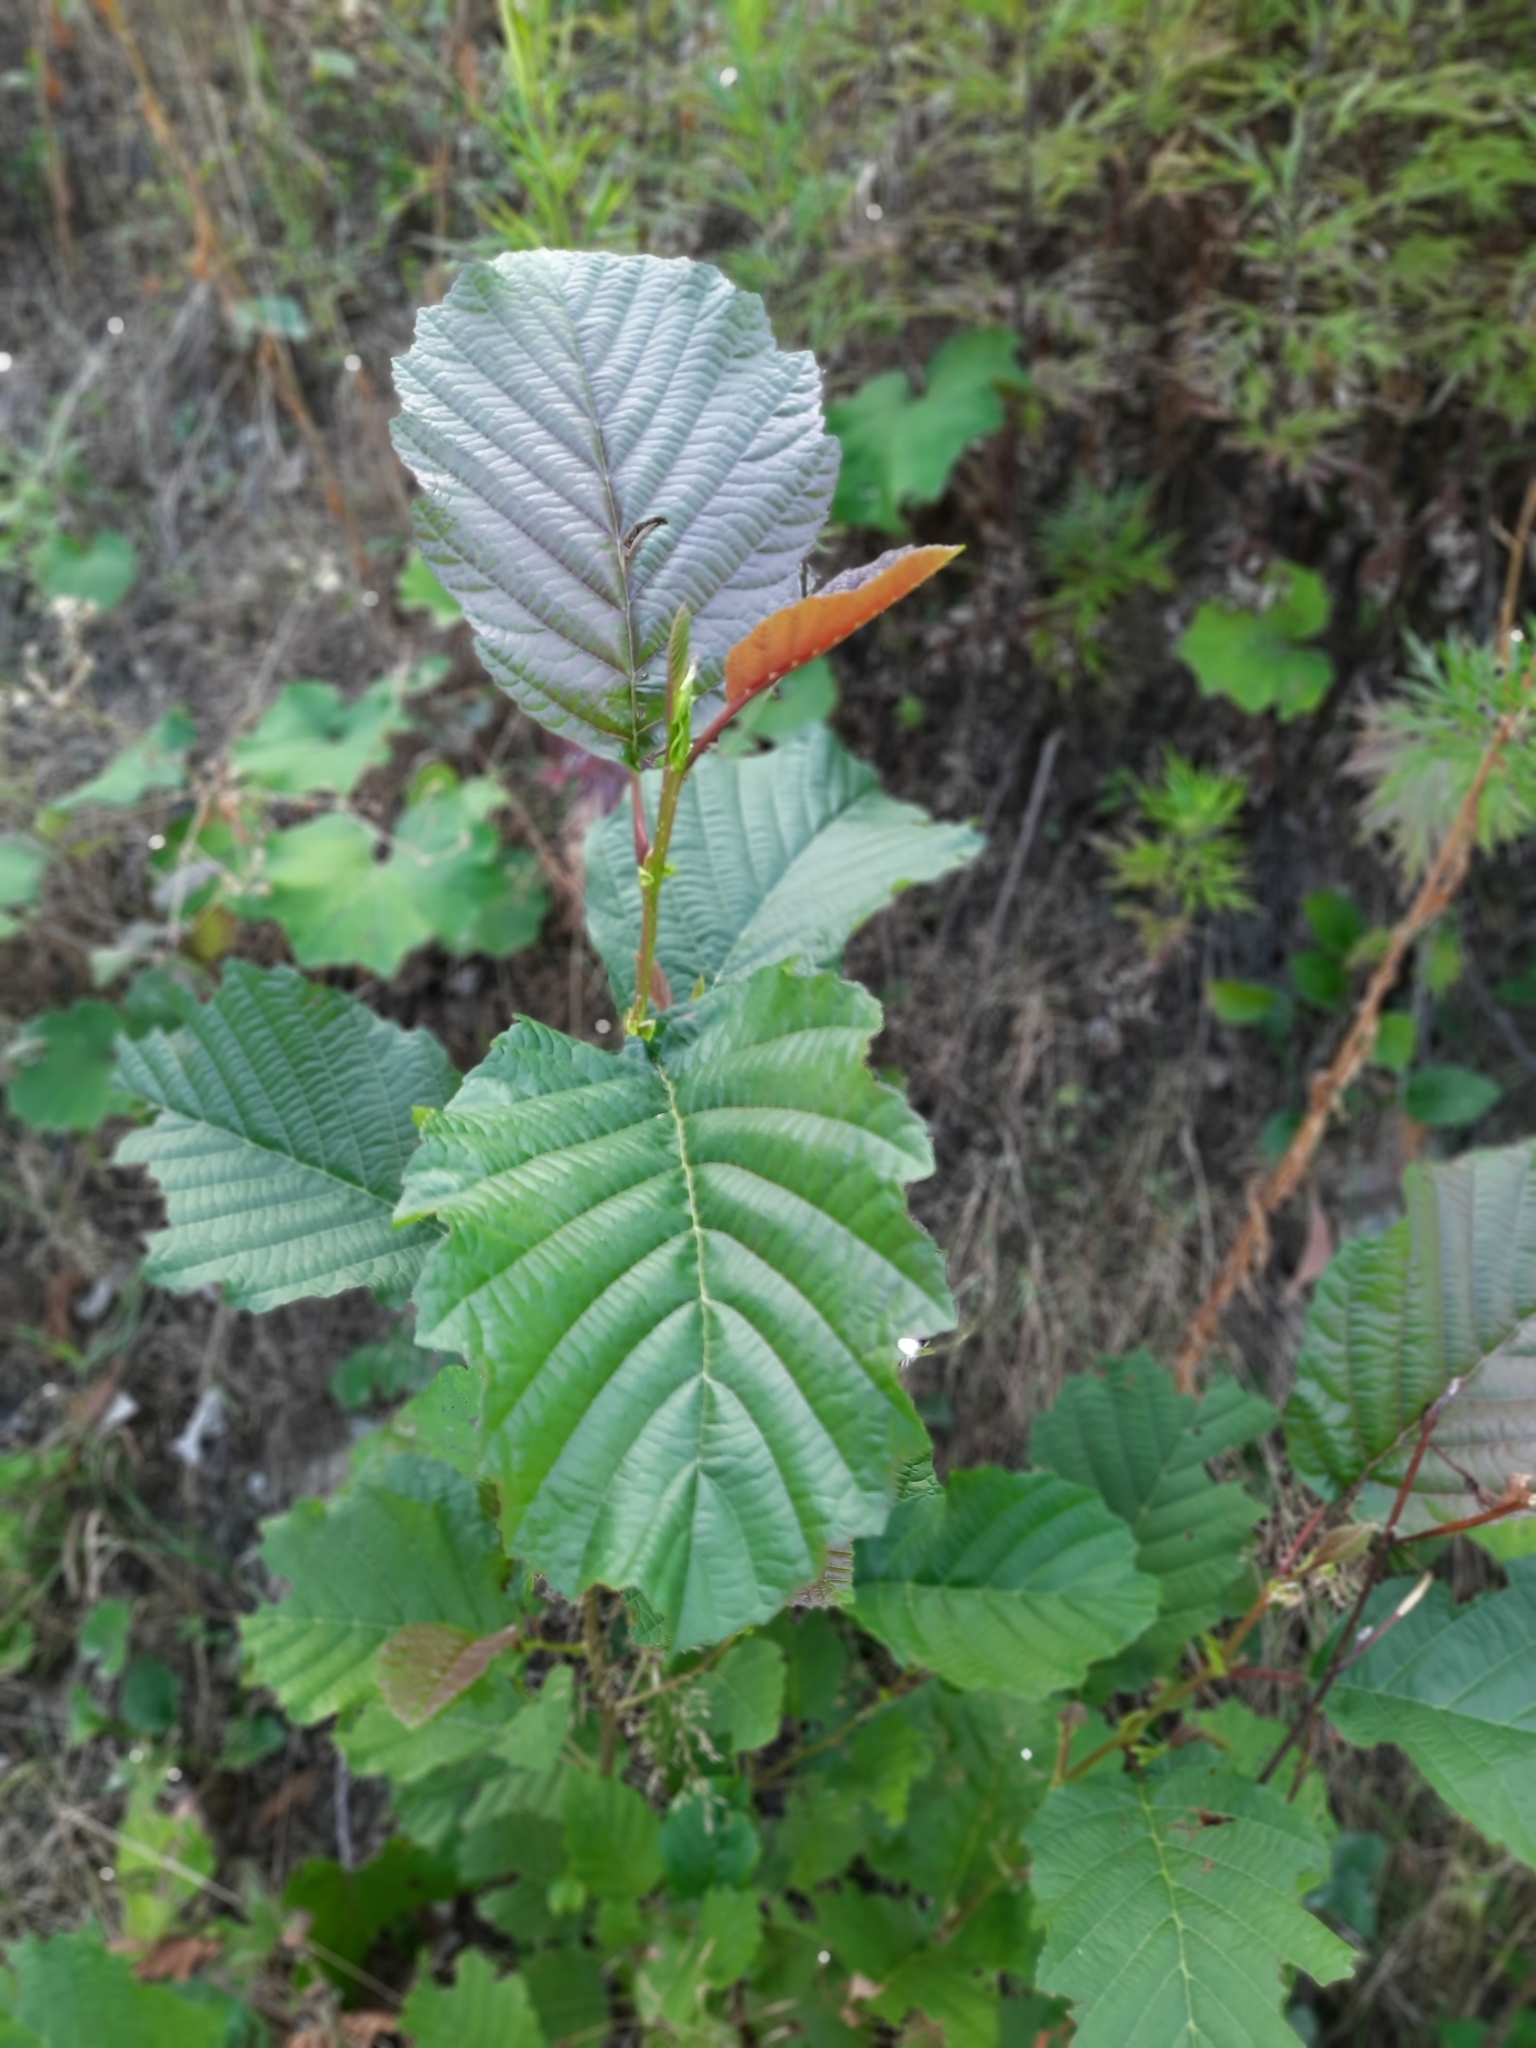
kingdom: Plantae
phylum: Tracheophyta
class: Magnoliopsida
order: Fagales
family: Betulaceae
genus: Alnus
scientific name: Alnus glutinosa
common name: Black alder
